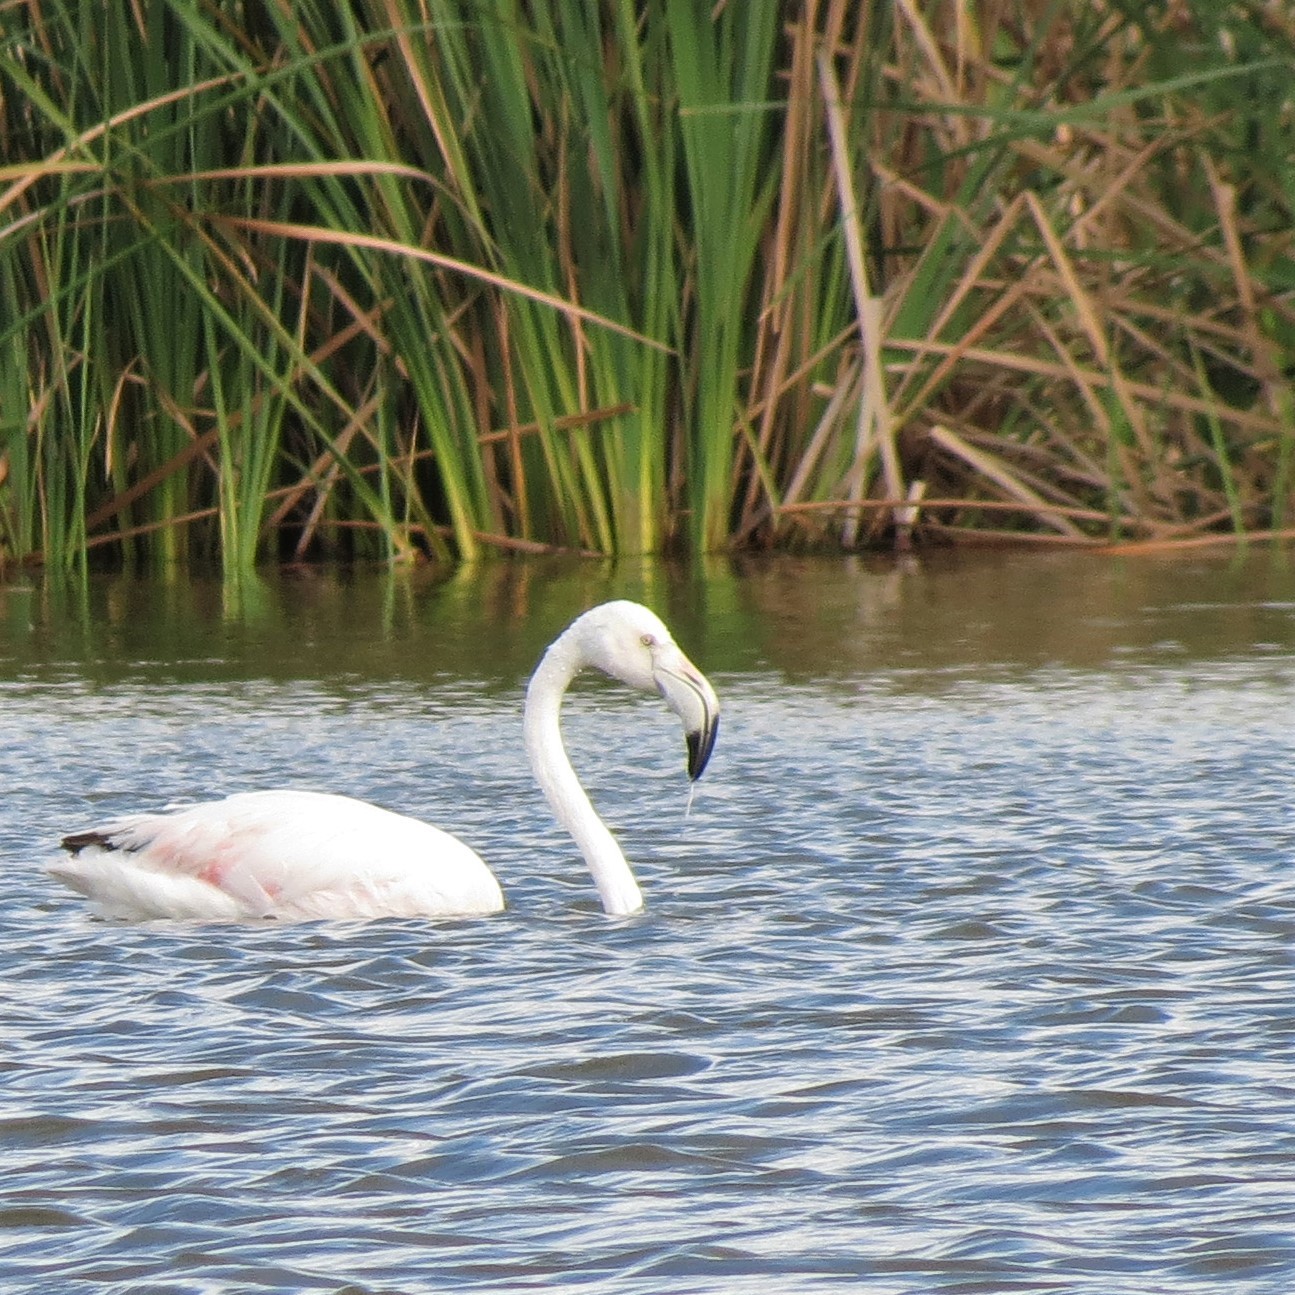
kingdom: Animalia
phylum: Chordata
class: Aves
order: Phoenicopteriformes
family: Phoenicopteridae
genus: Phoenicopterus
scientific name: Phoenicopterus roseus
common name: Greater flamingo
